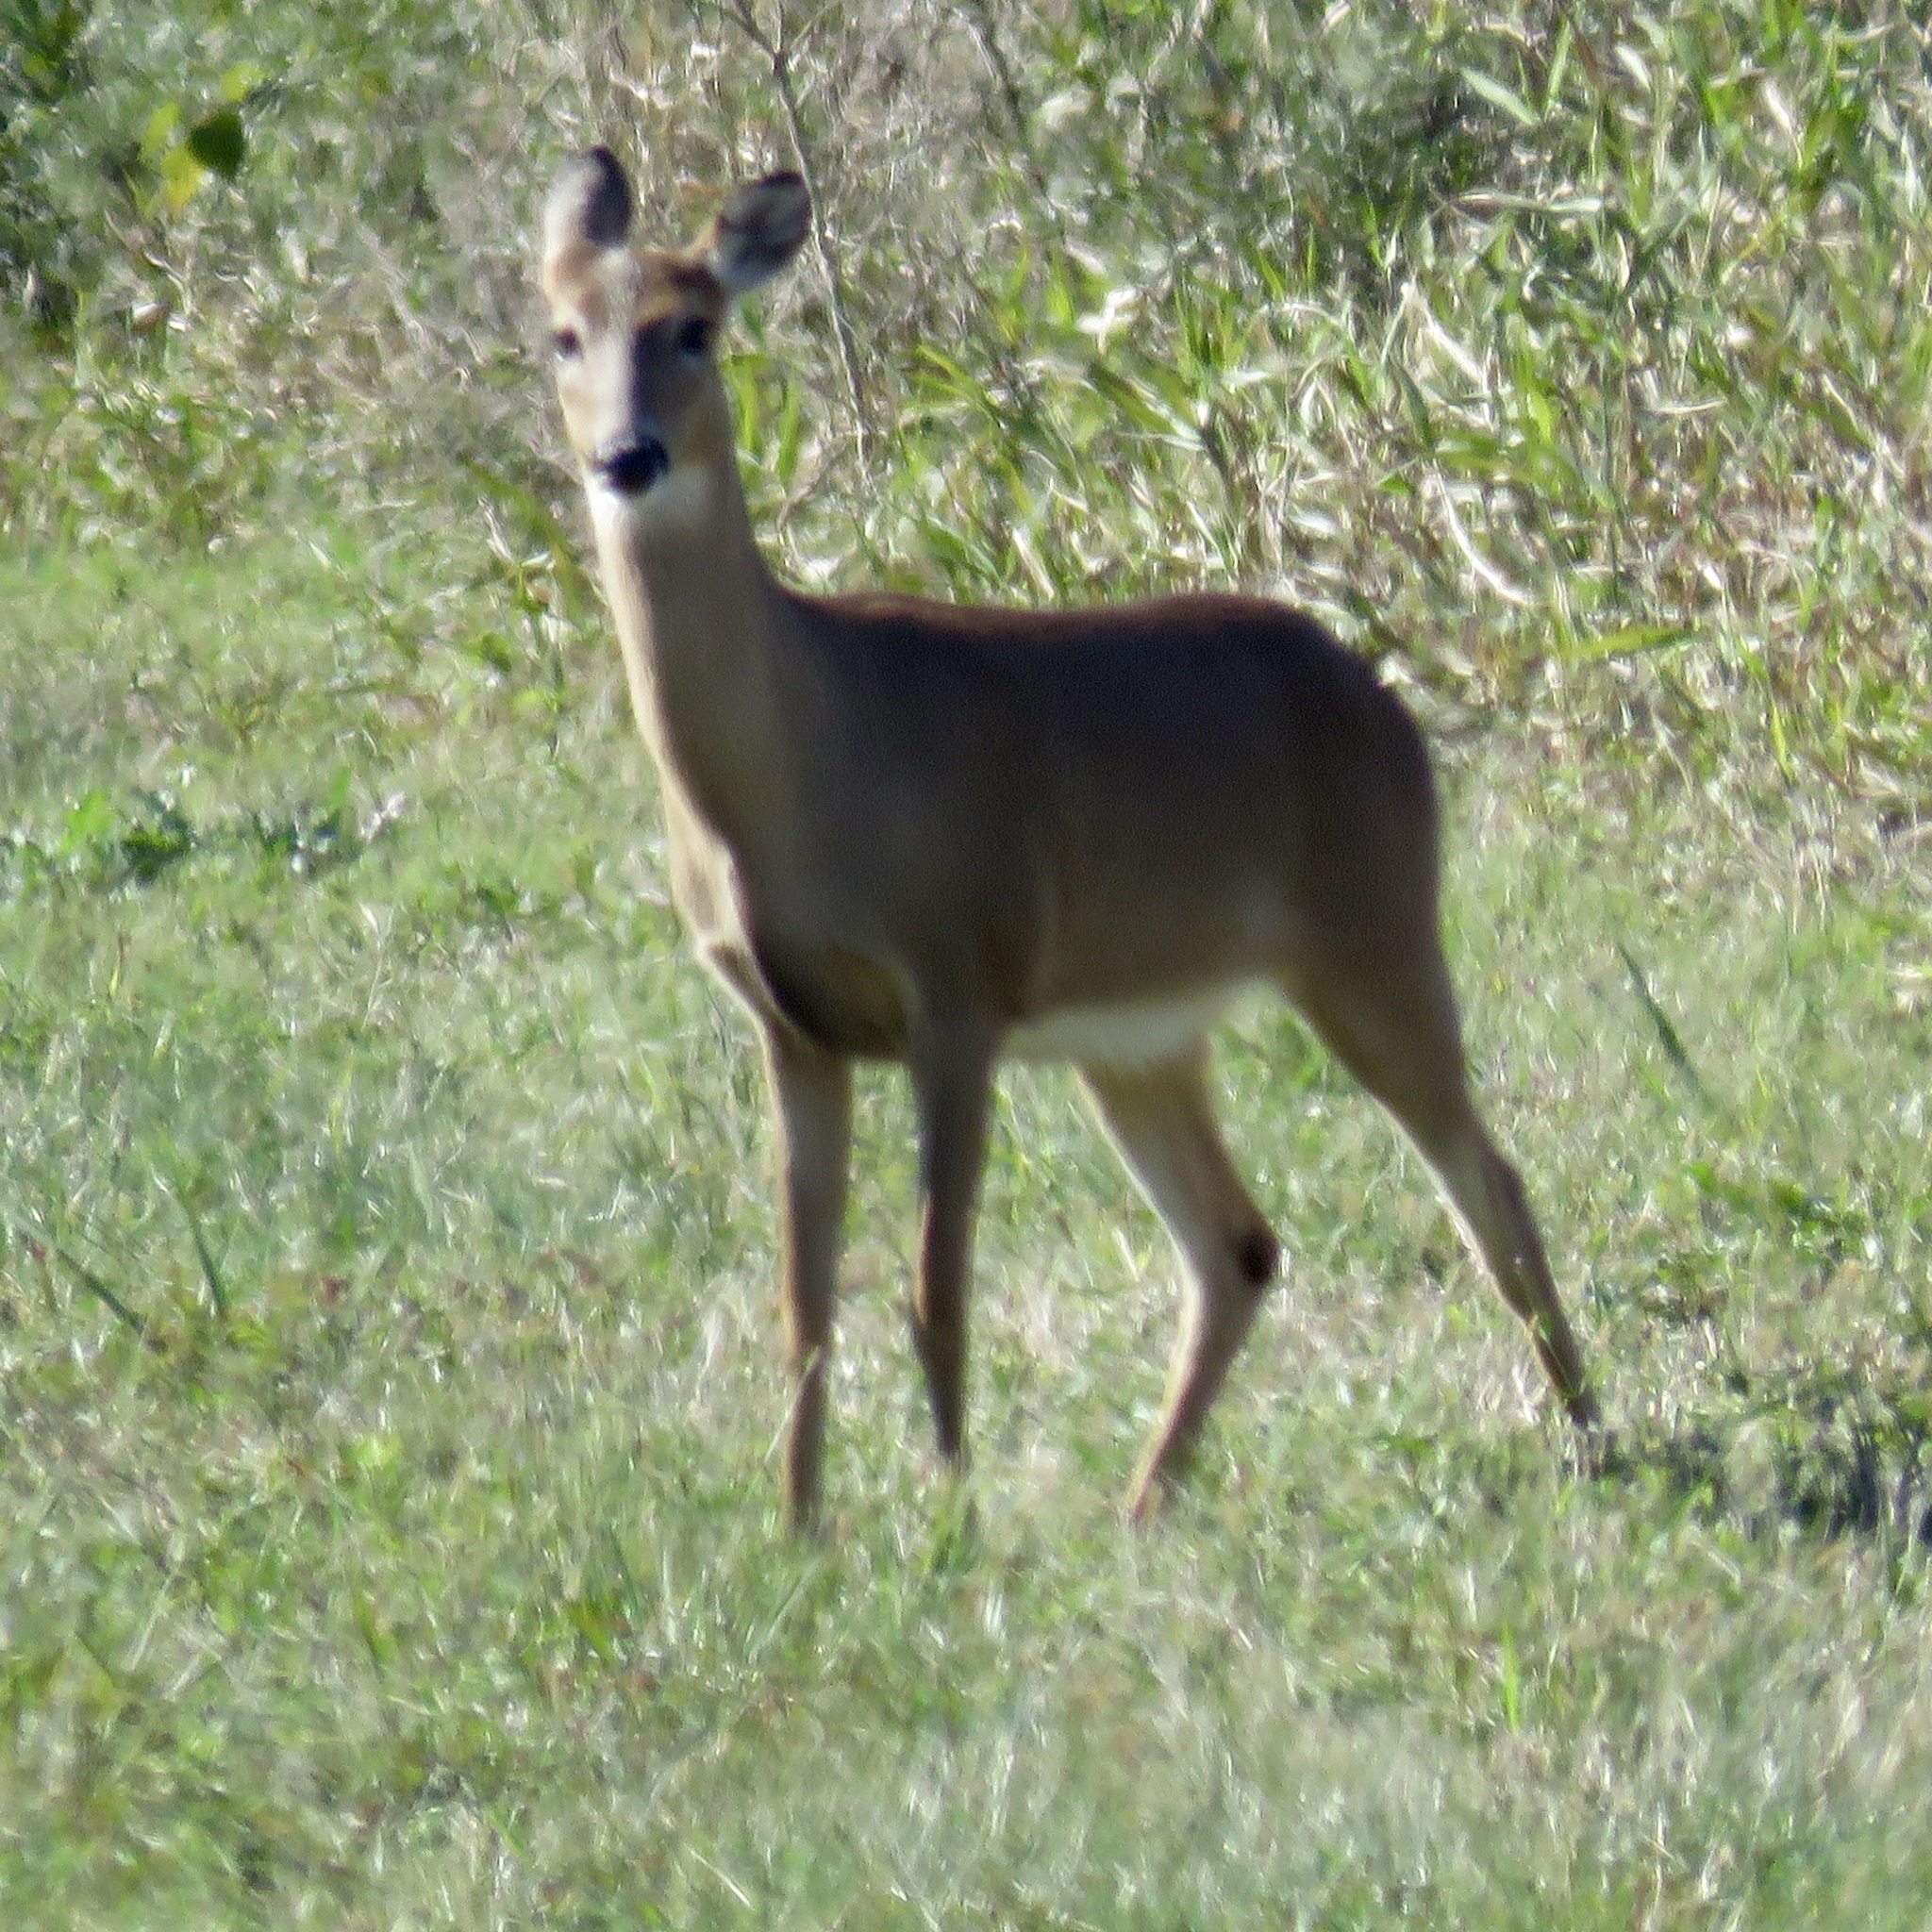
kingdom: Animalia
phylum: Chordata
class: Mammalia
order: Artiodactyla
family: Cervidae
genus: Odocoileus
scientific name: Odocoileus virginianus
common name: White-tailed deer
